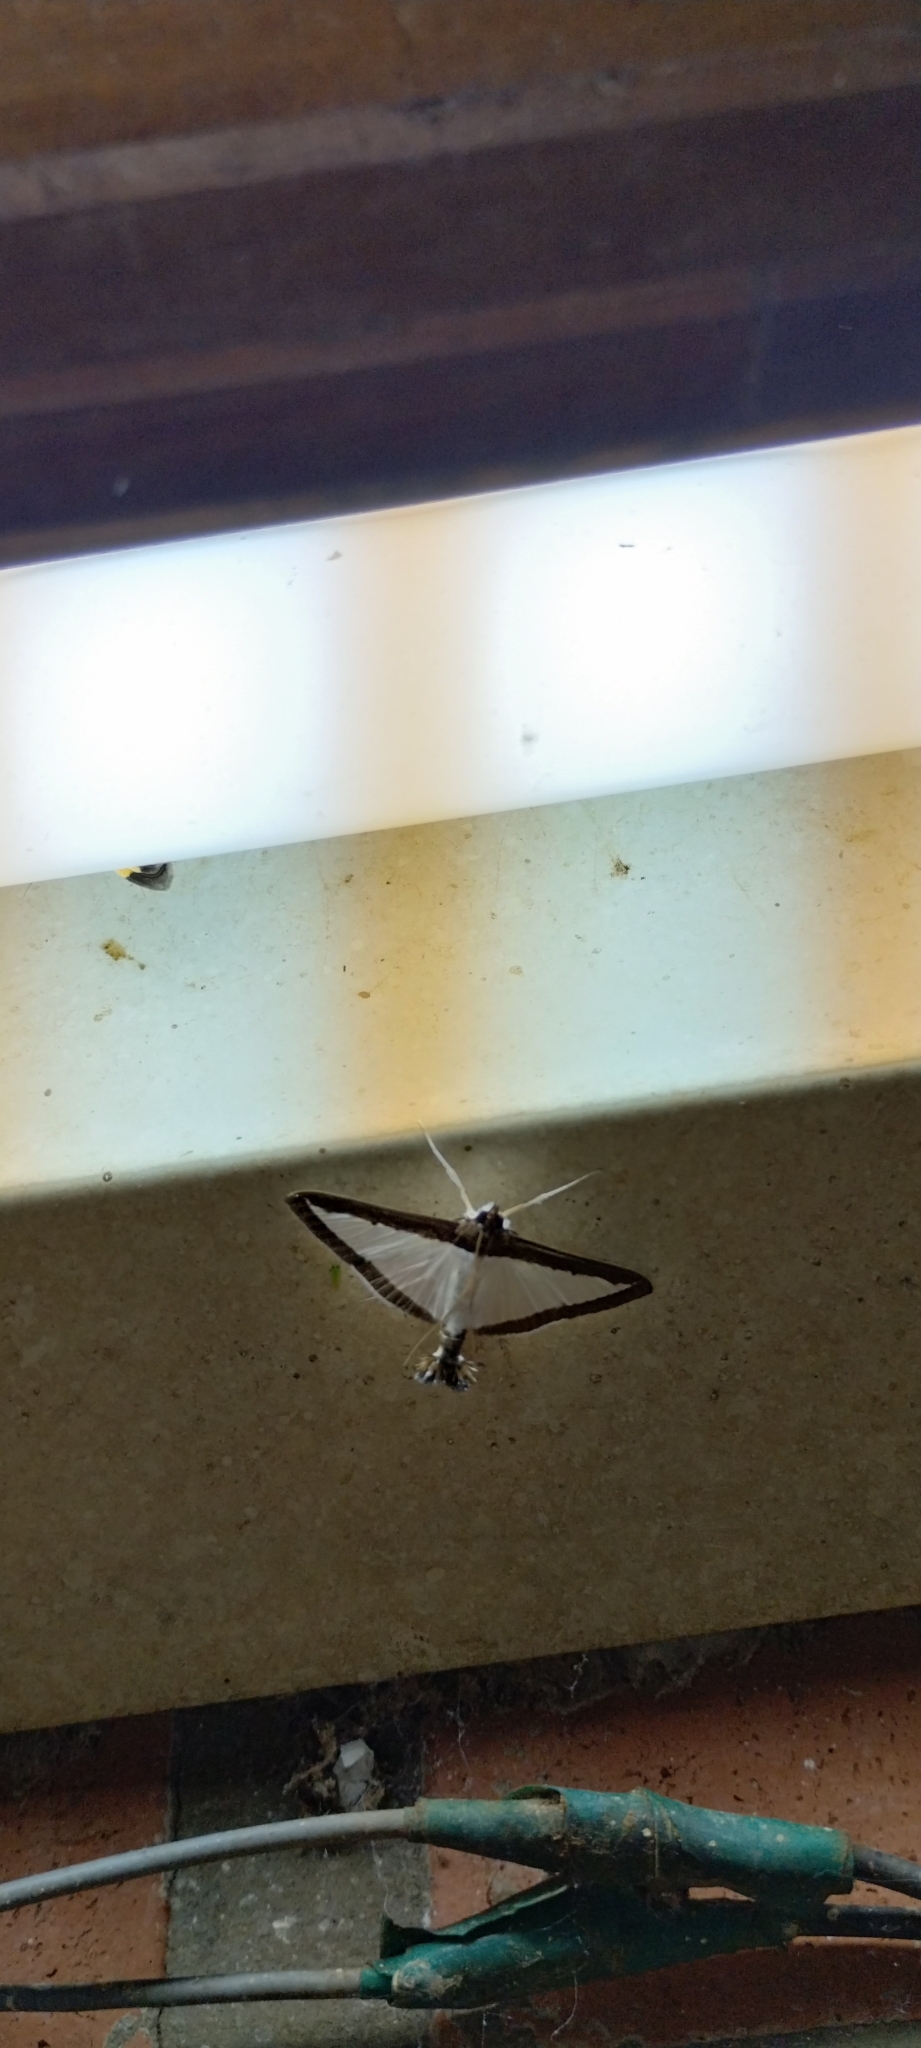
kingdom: Animalia
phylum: Arthropoda
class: Insecta
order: Lepidoptera
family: Crambidae
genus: Diaphania
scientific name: Diaphania hyalinata
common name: Melonworm
